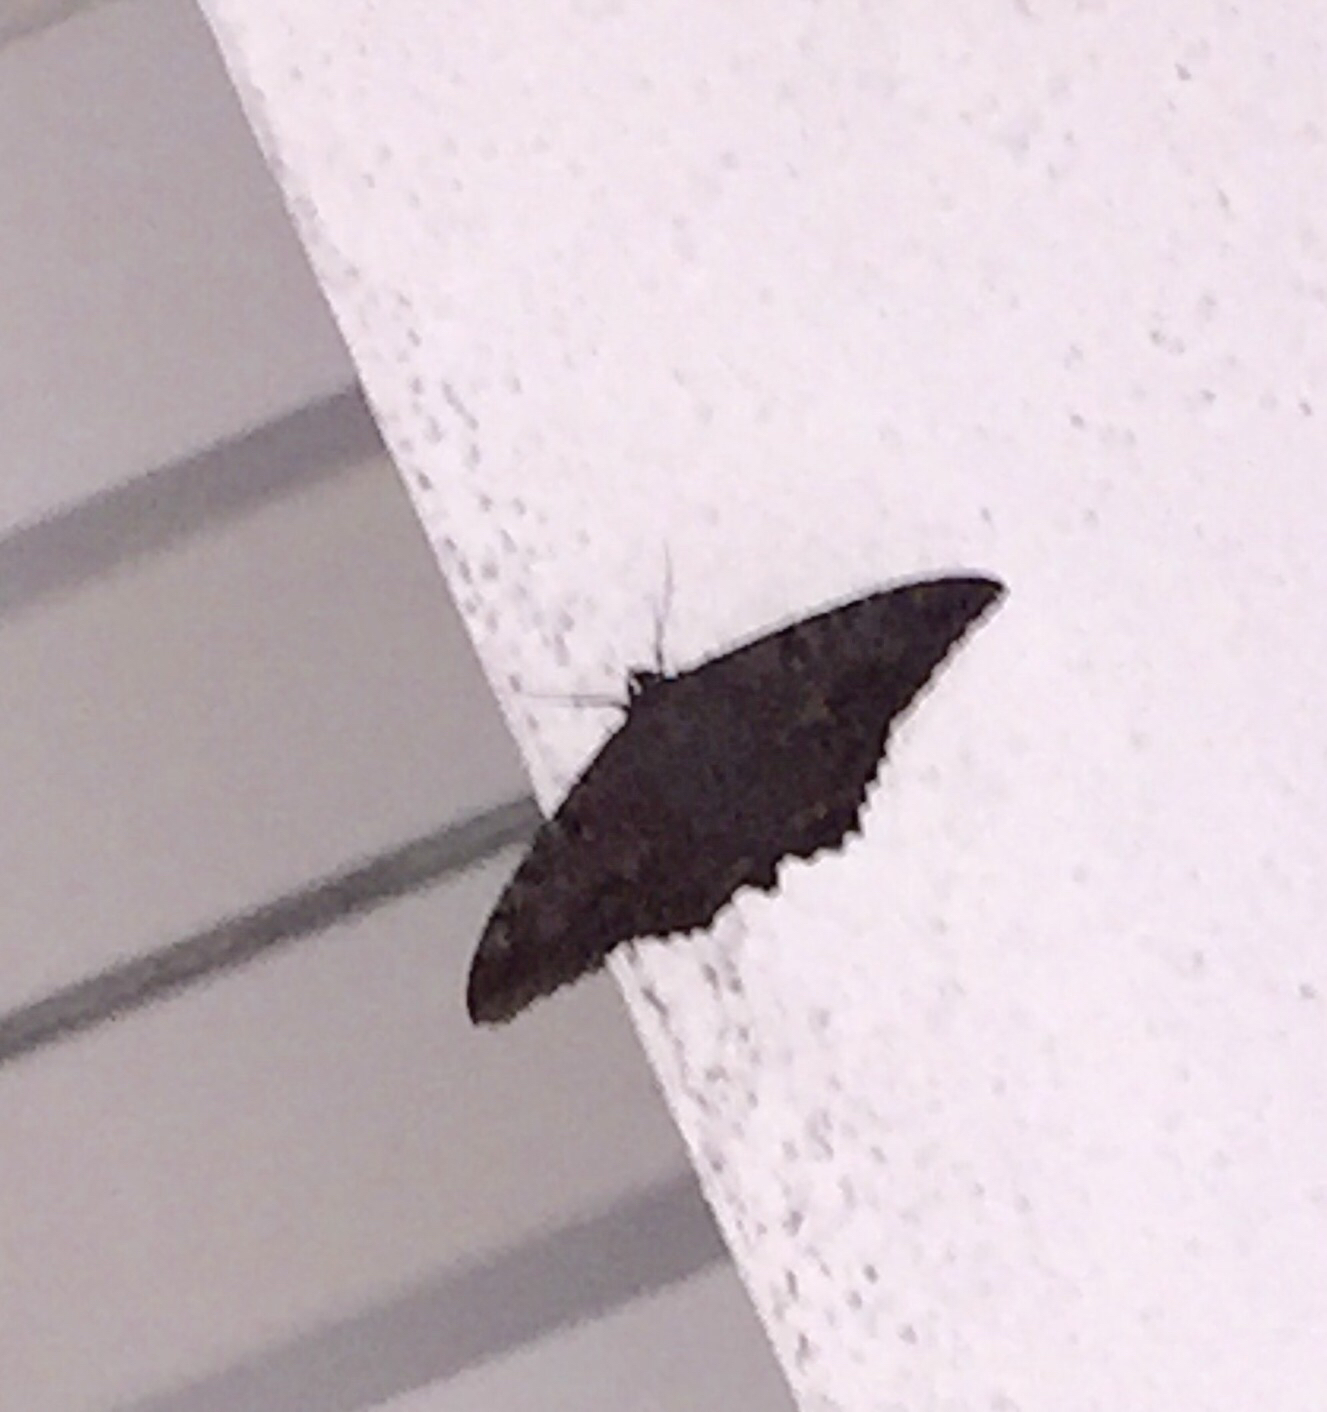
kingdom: Animalia
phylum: Arthropoda
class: Insecta
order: Lepidoptera
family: Erebidae
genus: Ascalapha
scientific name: Ascalapha odorata
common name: Black witch
